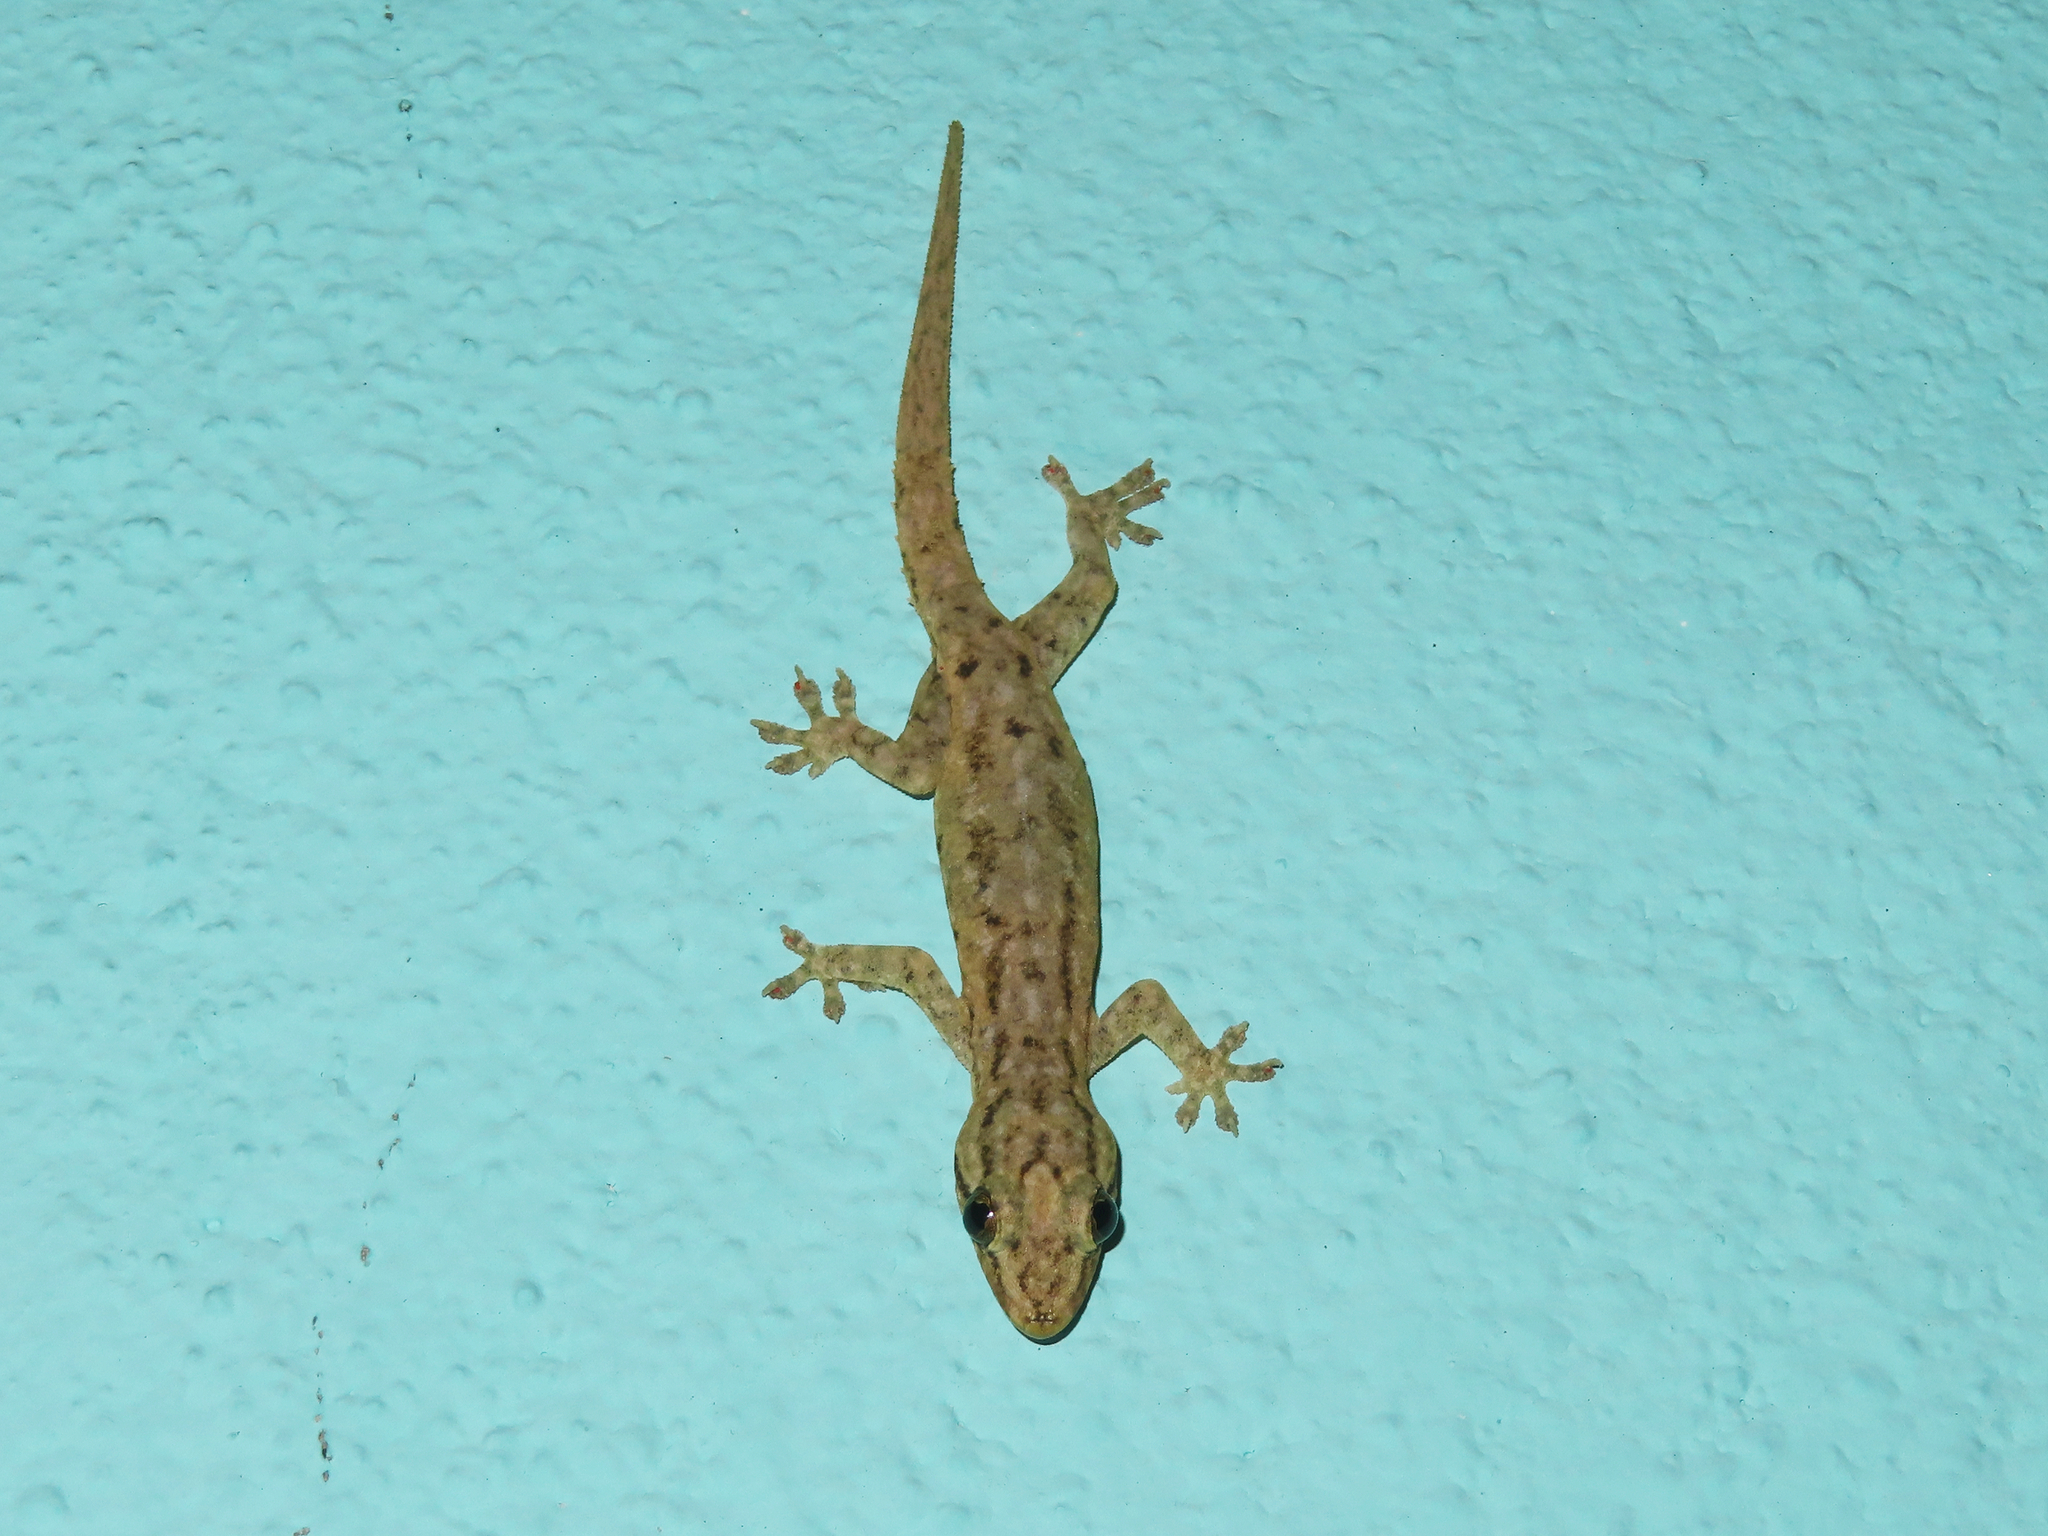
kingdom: Animalia
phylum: Chordata
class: Squamata
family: Gekkonidae
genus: Hemidactylus
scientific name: Hemidactylus frenatus
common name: Common house gecko
